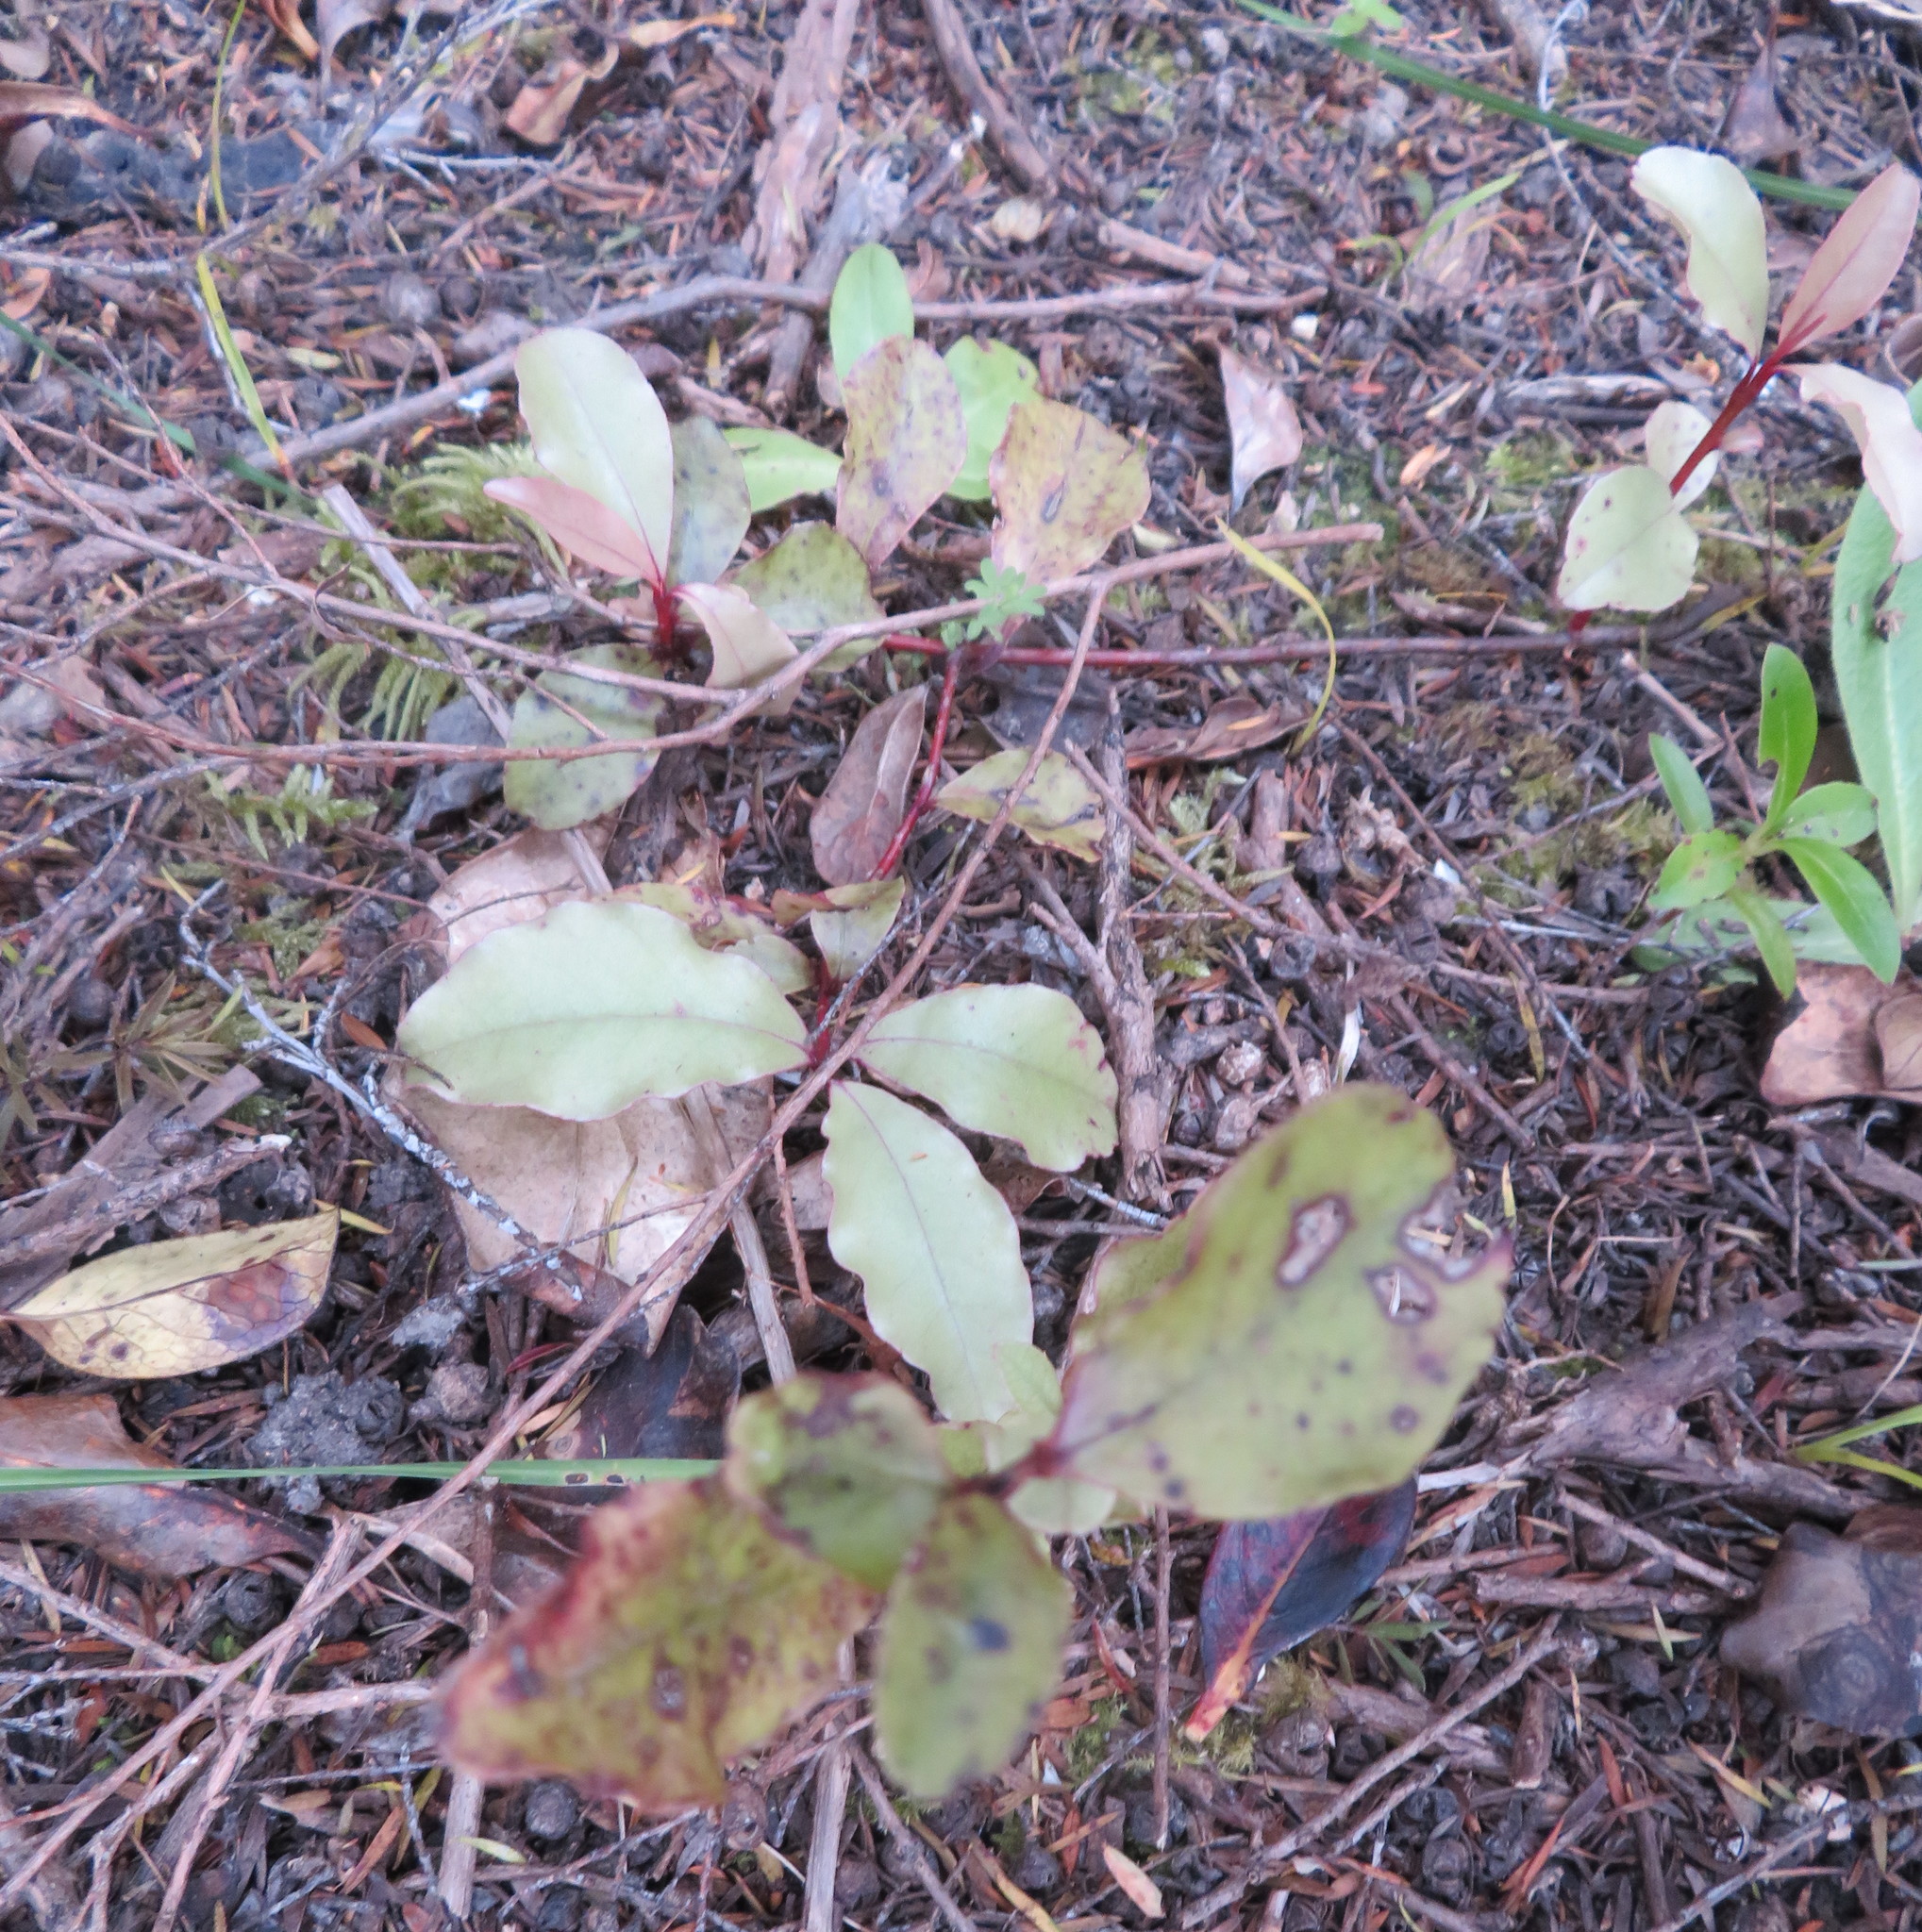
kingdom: Plantae
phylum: Tracheophyta
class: Magnoliopsida
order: Ericales
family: Primulaceae
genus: Myrsine
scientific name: Myrsine australis
